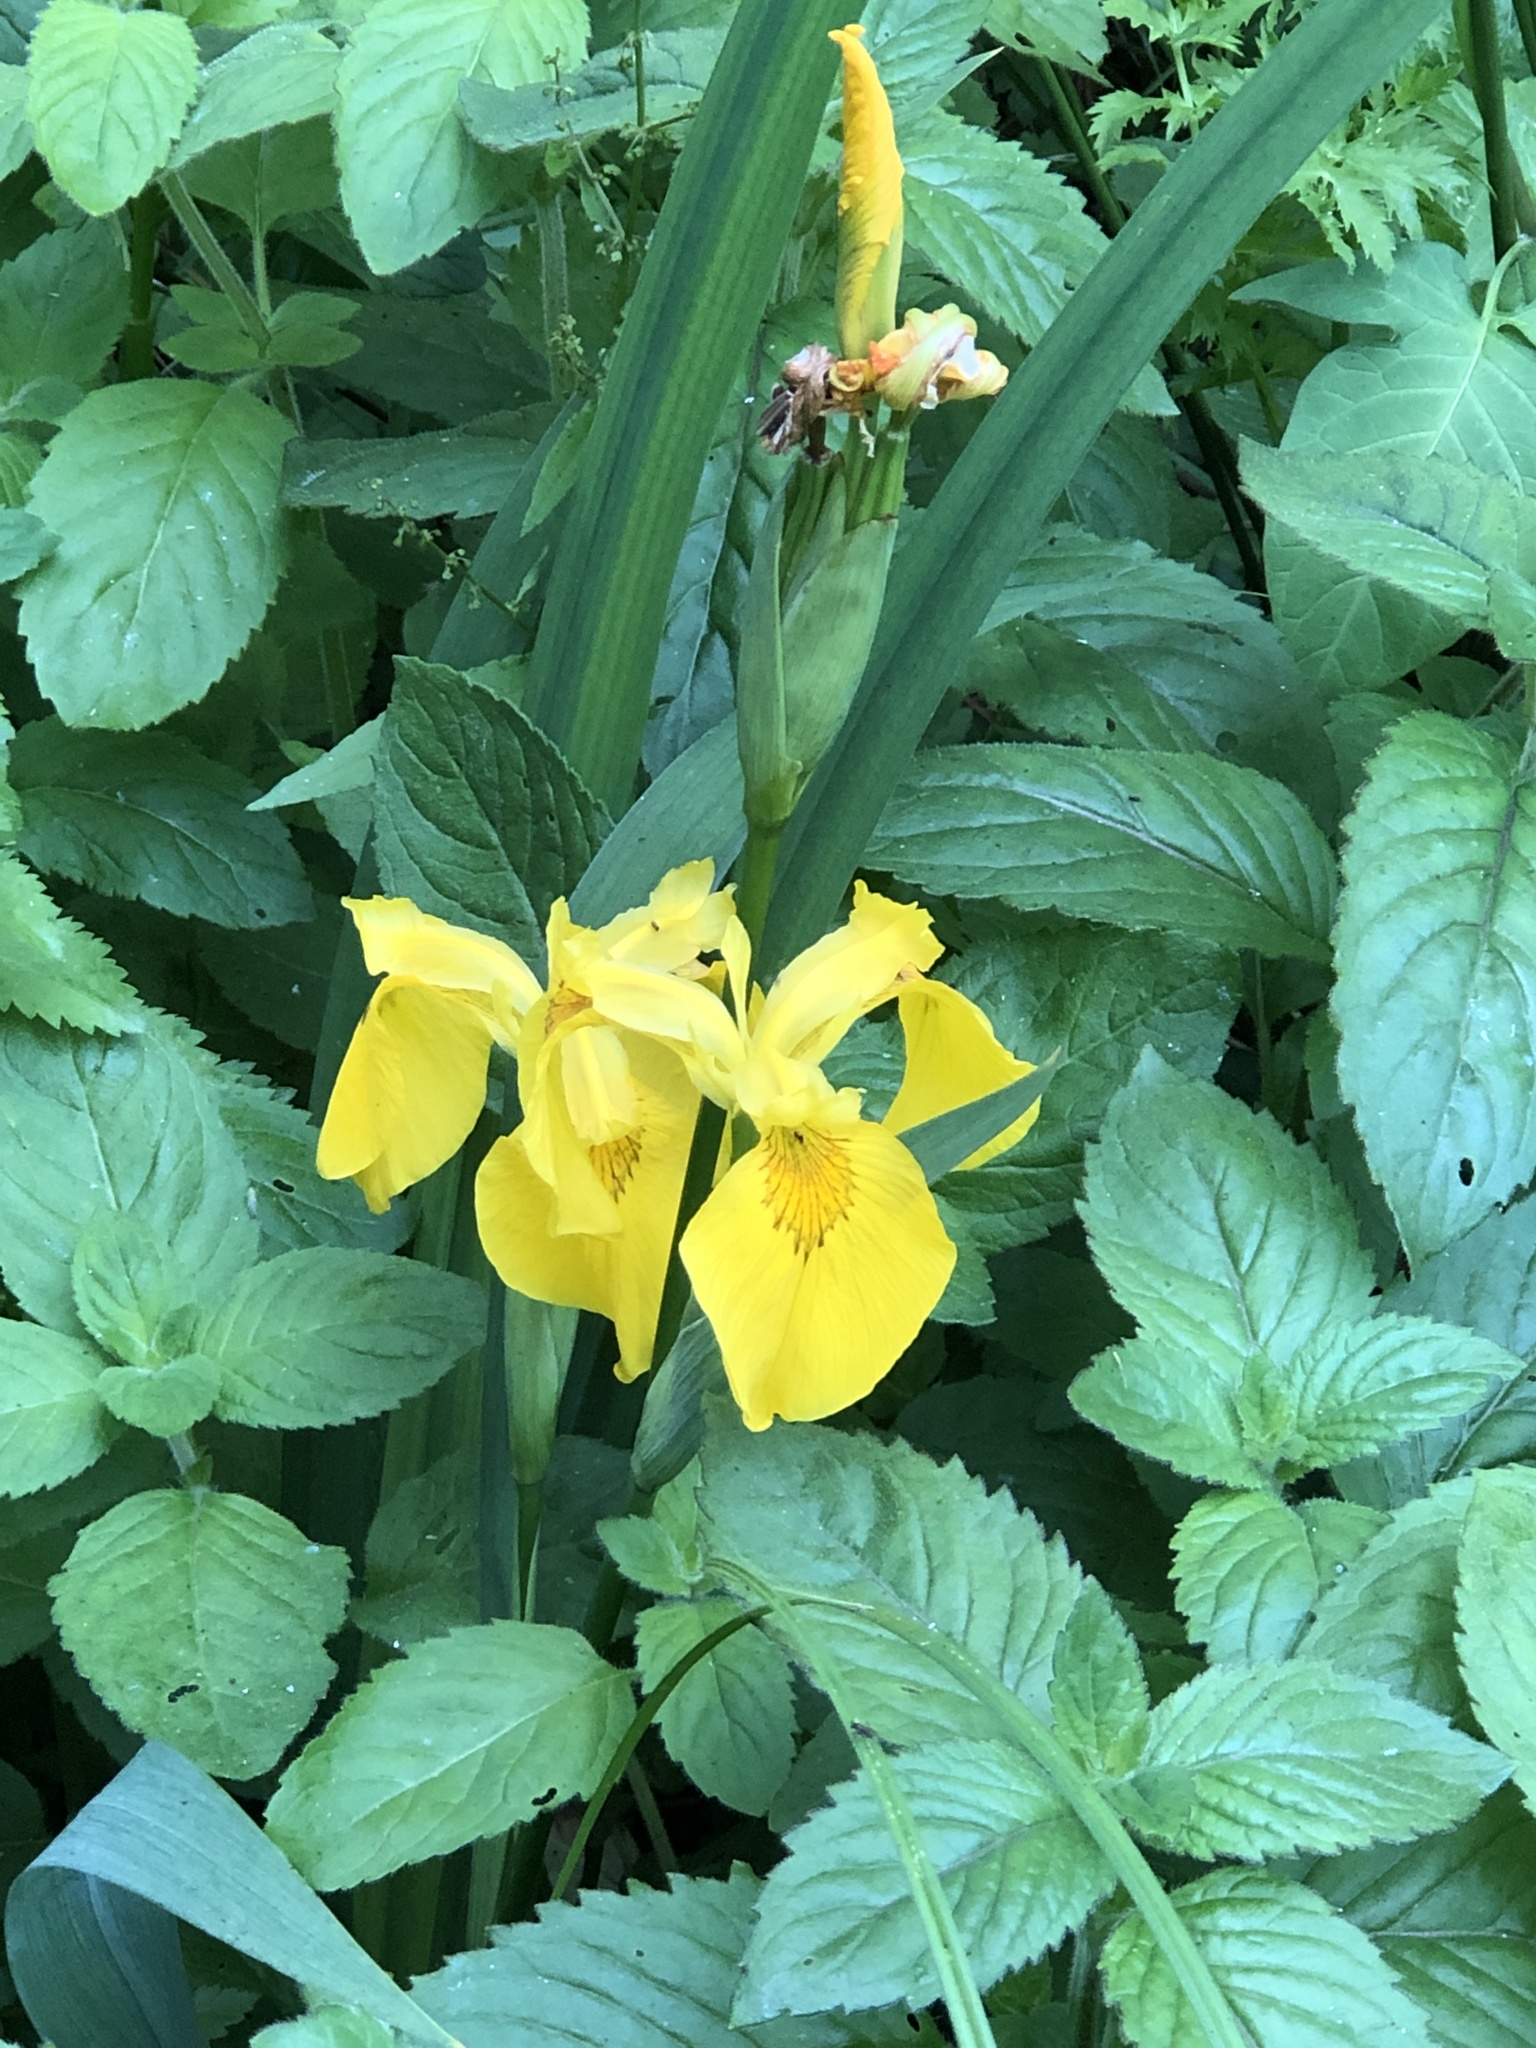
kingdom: Plantae
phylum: Tracheophyta
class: Liliopsida
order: Asparagales
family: Iridaceae
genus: Iris
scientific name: Iris pseudacorus
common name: Yellow flag
